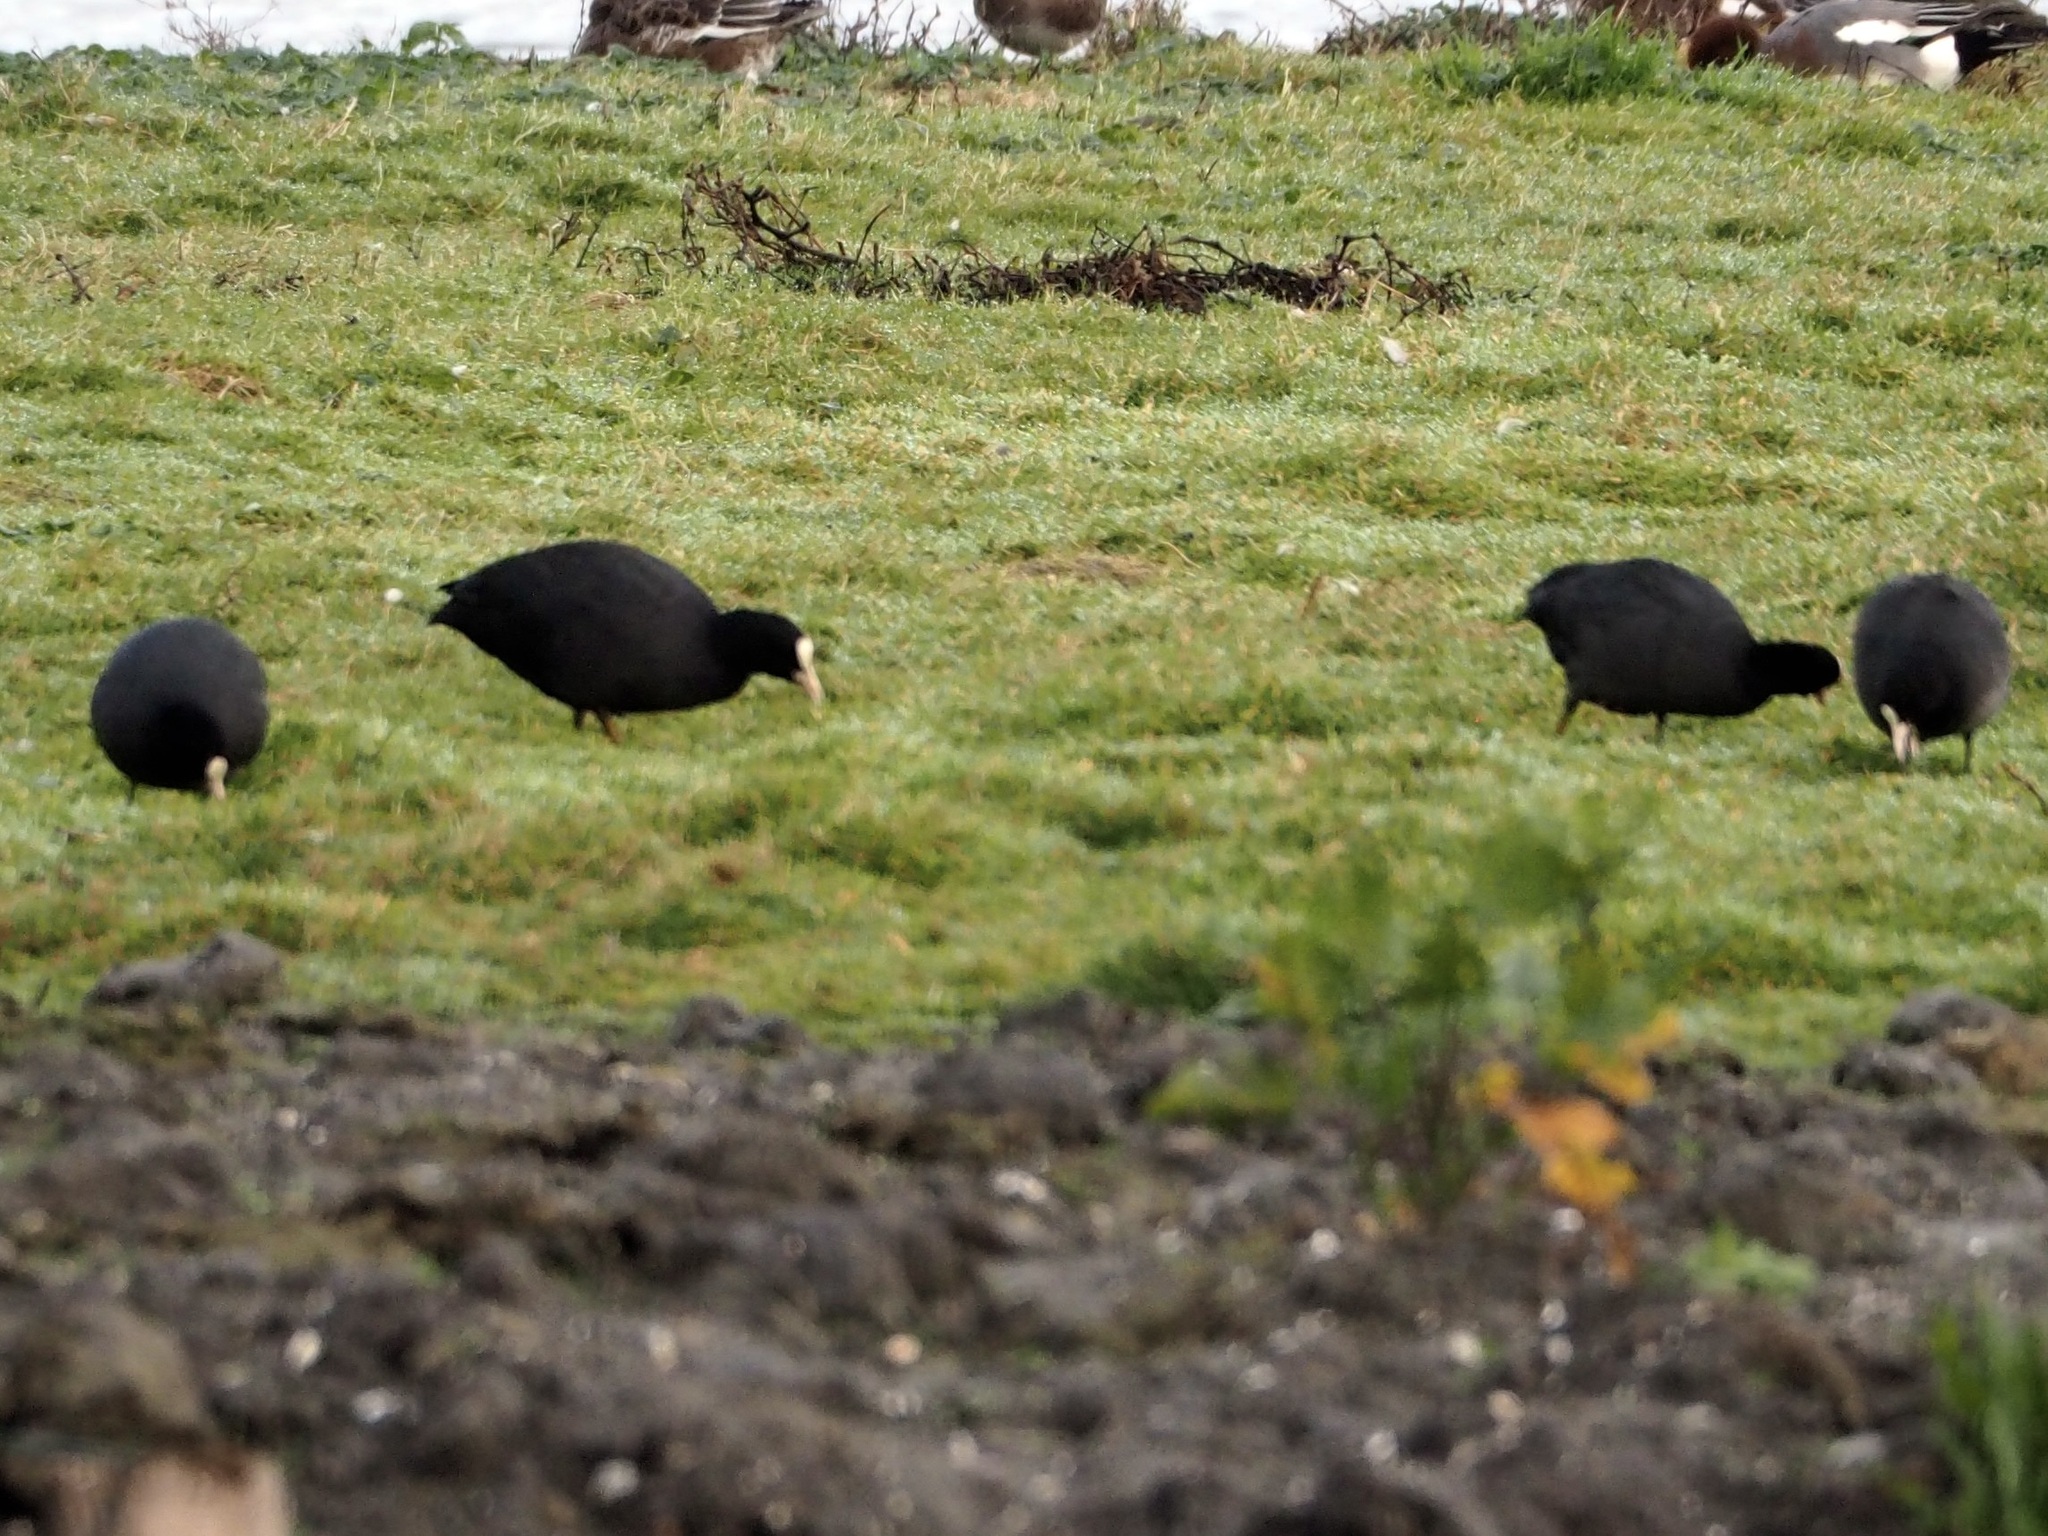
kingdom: Animalia
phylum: Chordata
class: Aves
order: Gruiformes
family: Rallidae
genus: Fulica
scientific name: Fulica atra
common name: Eurasian coot
